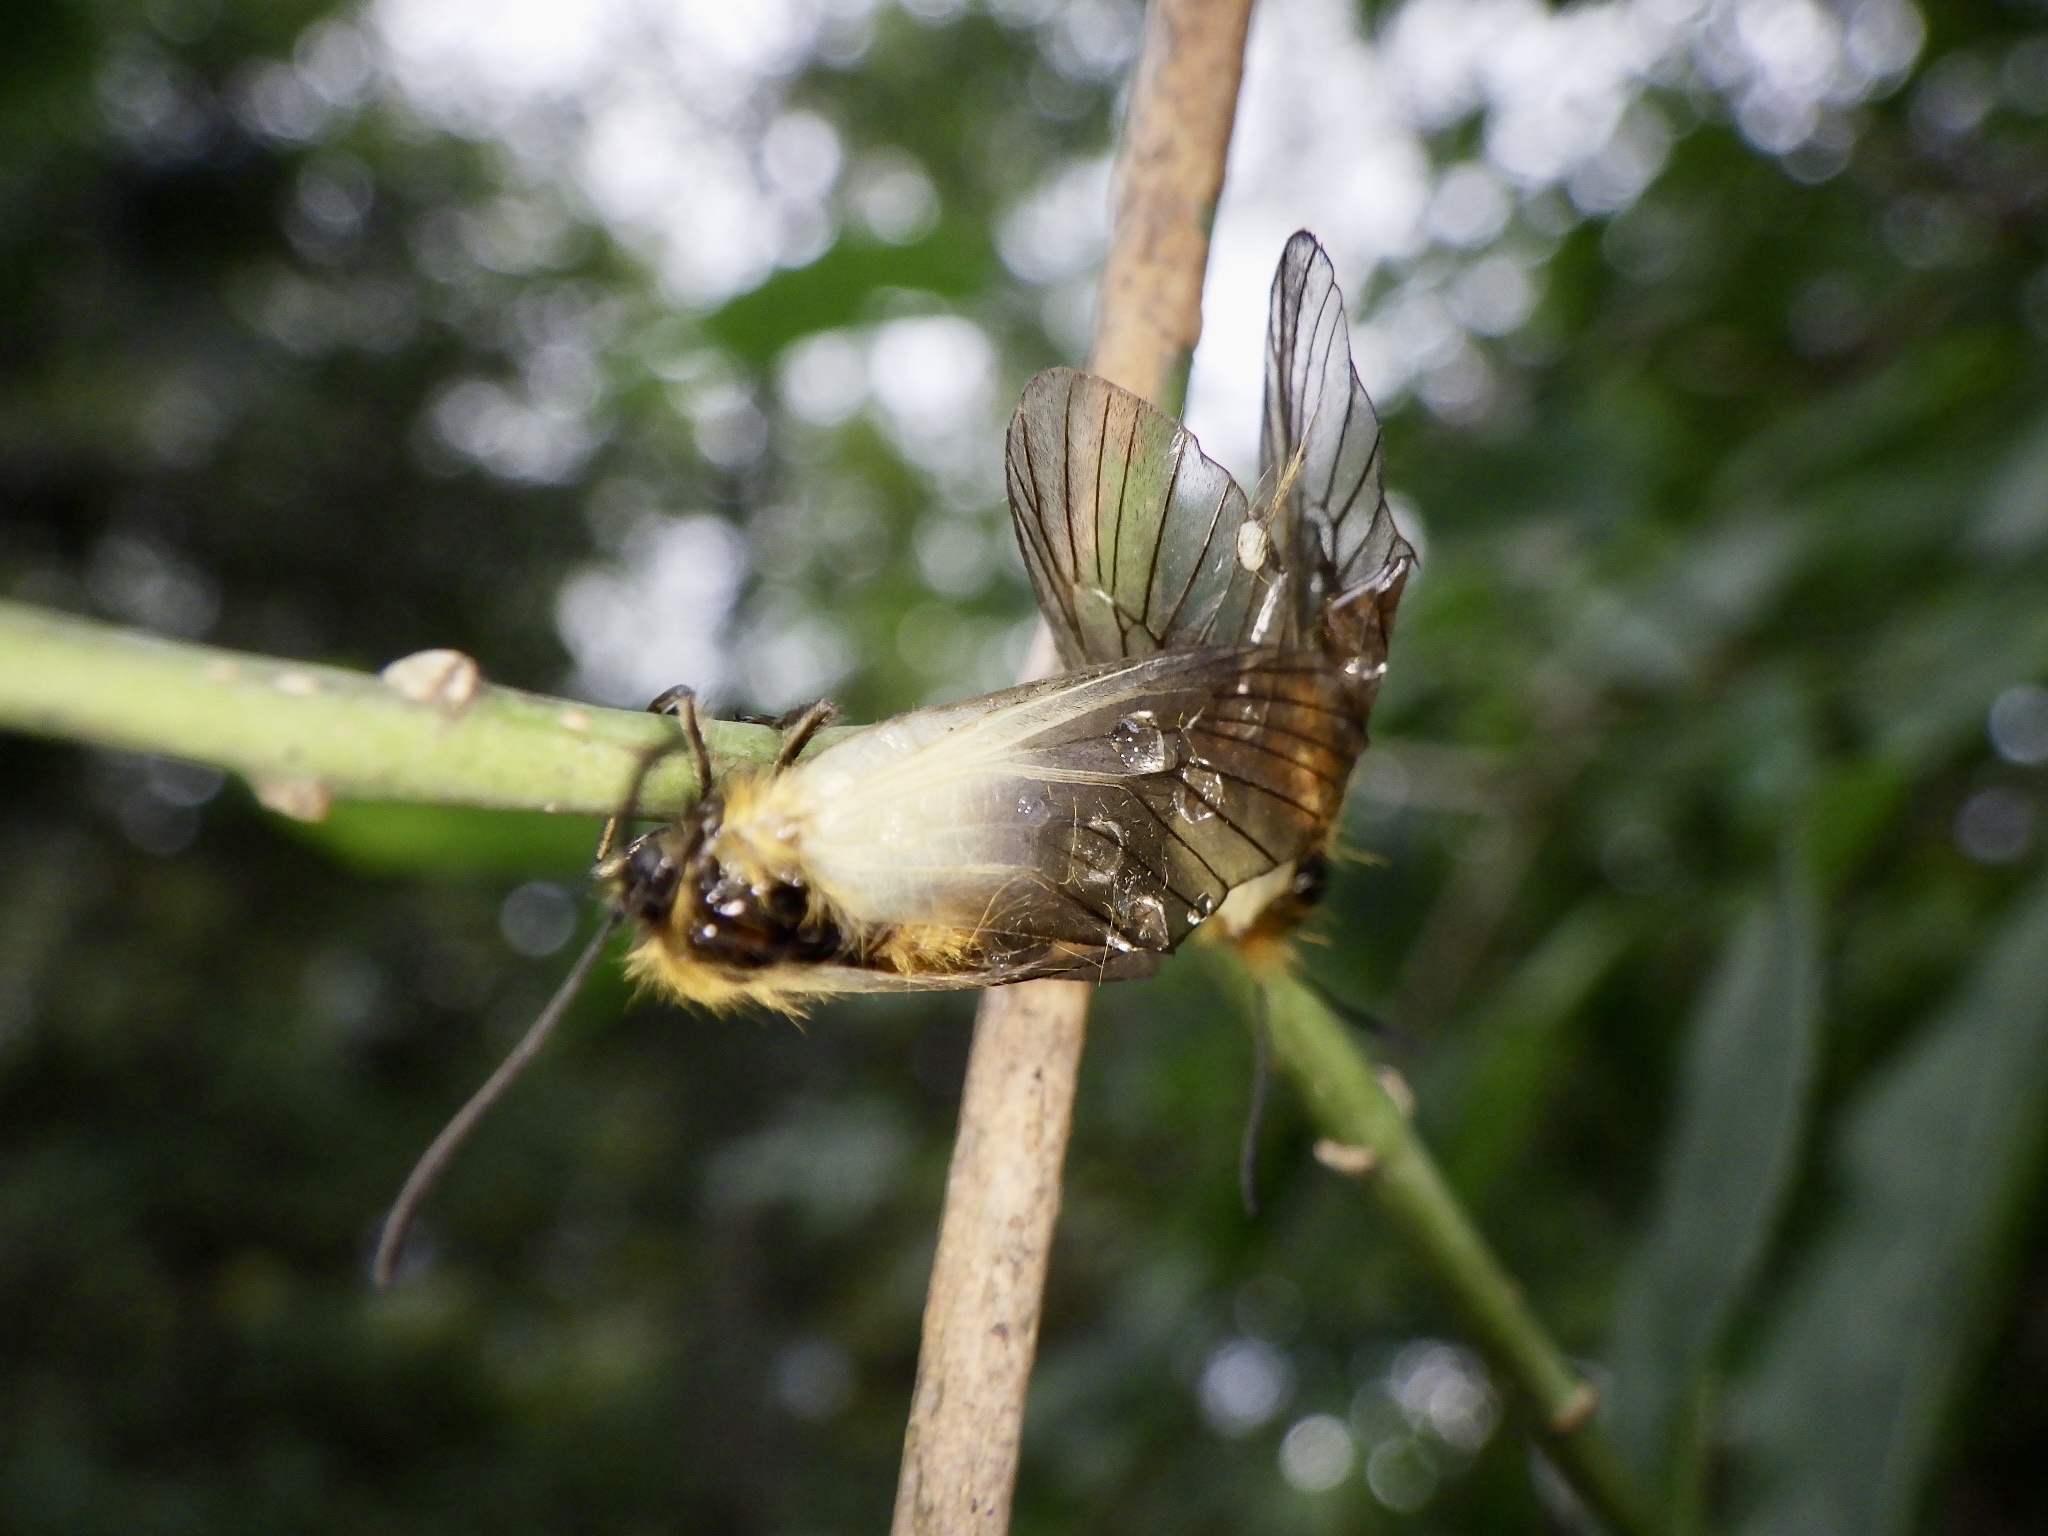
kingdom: Animalia
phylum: Arthropoda
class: Insecta
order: Lepidoptera
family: Zygaenidae
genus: Sinica
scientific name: Sinica sinica
